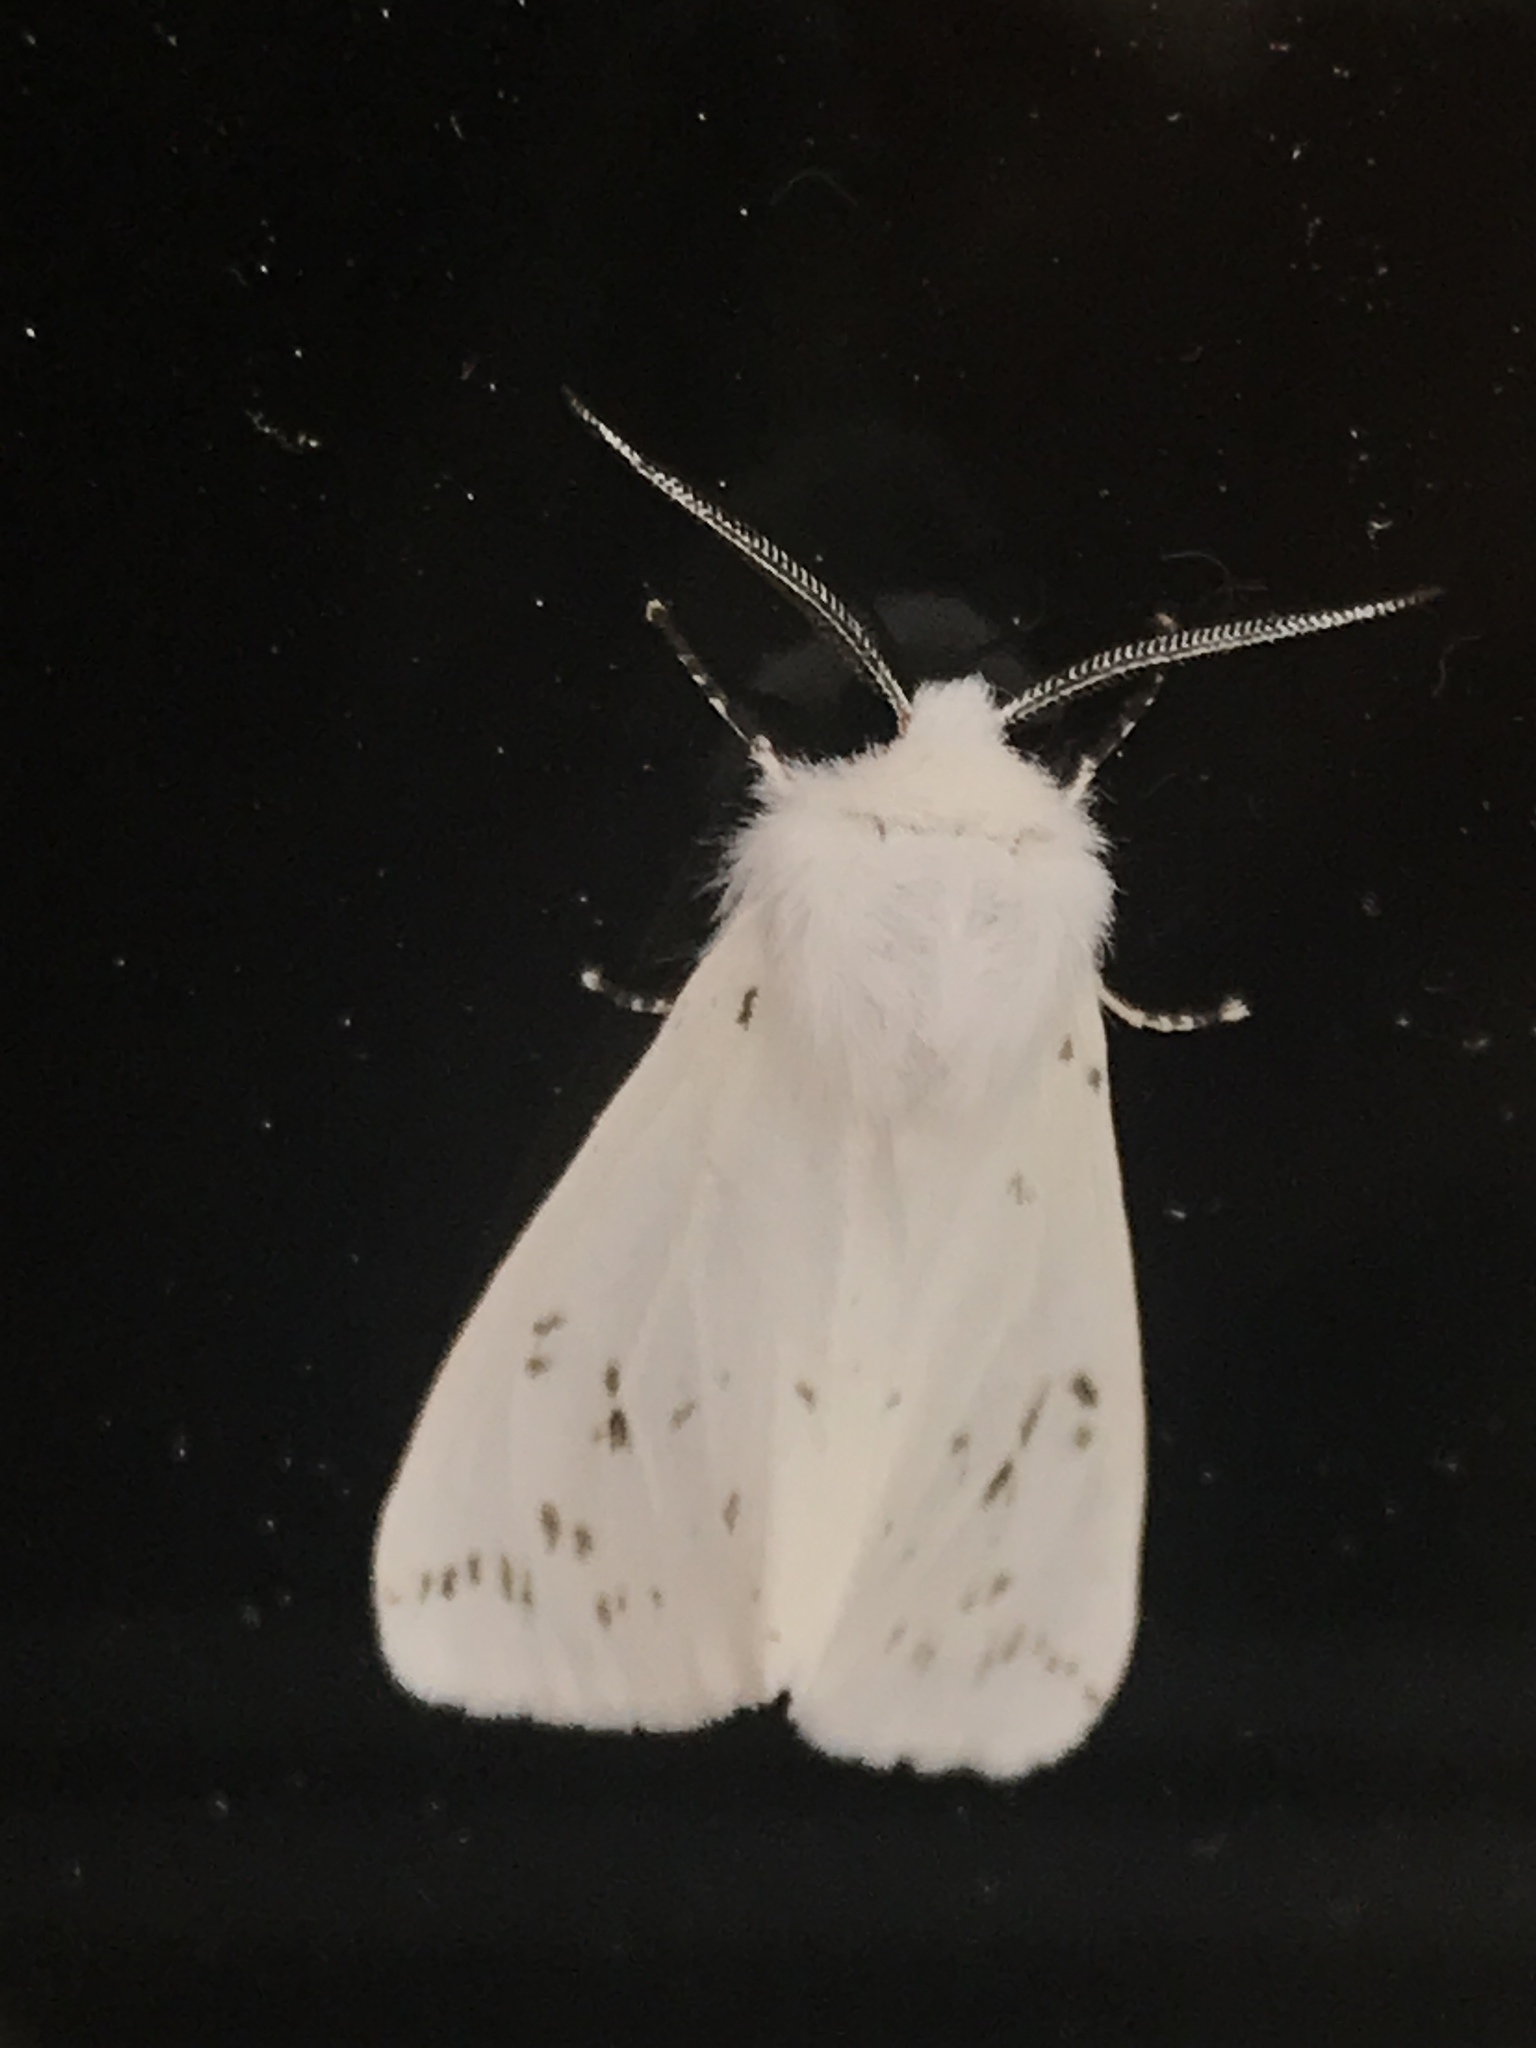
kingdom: Animalia
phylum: Arthropoda
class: Insecta
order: Lepidoptera
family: Erebidae
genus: Hyphantria
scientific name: Hyphantria cunea
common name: American white moth
